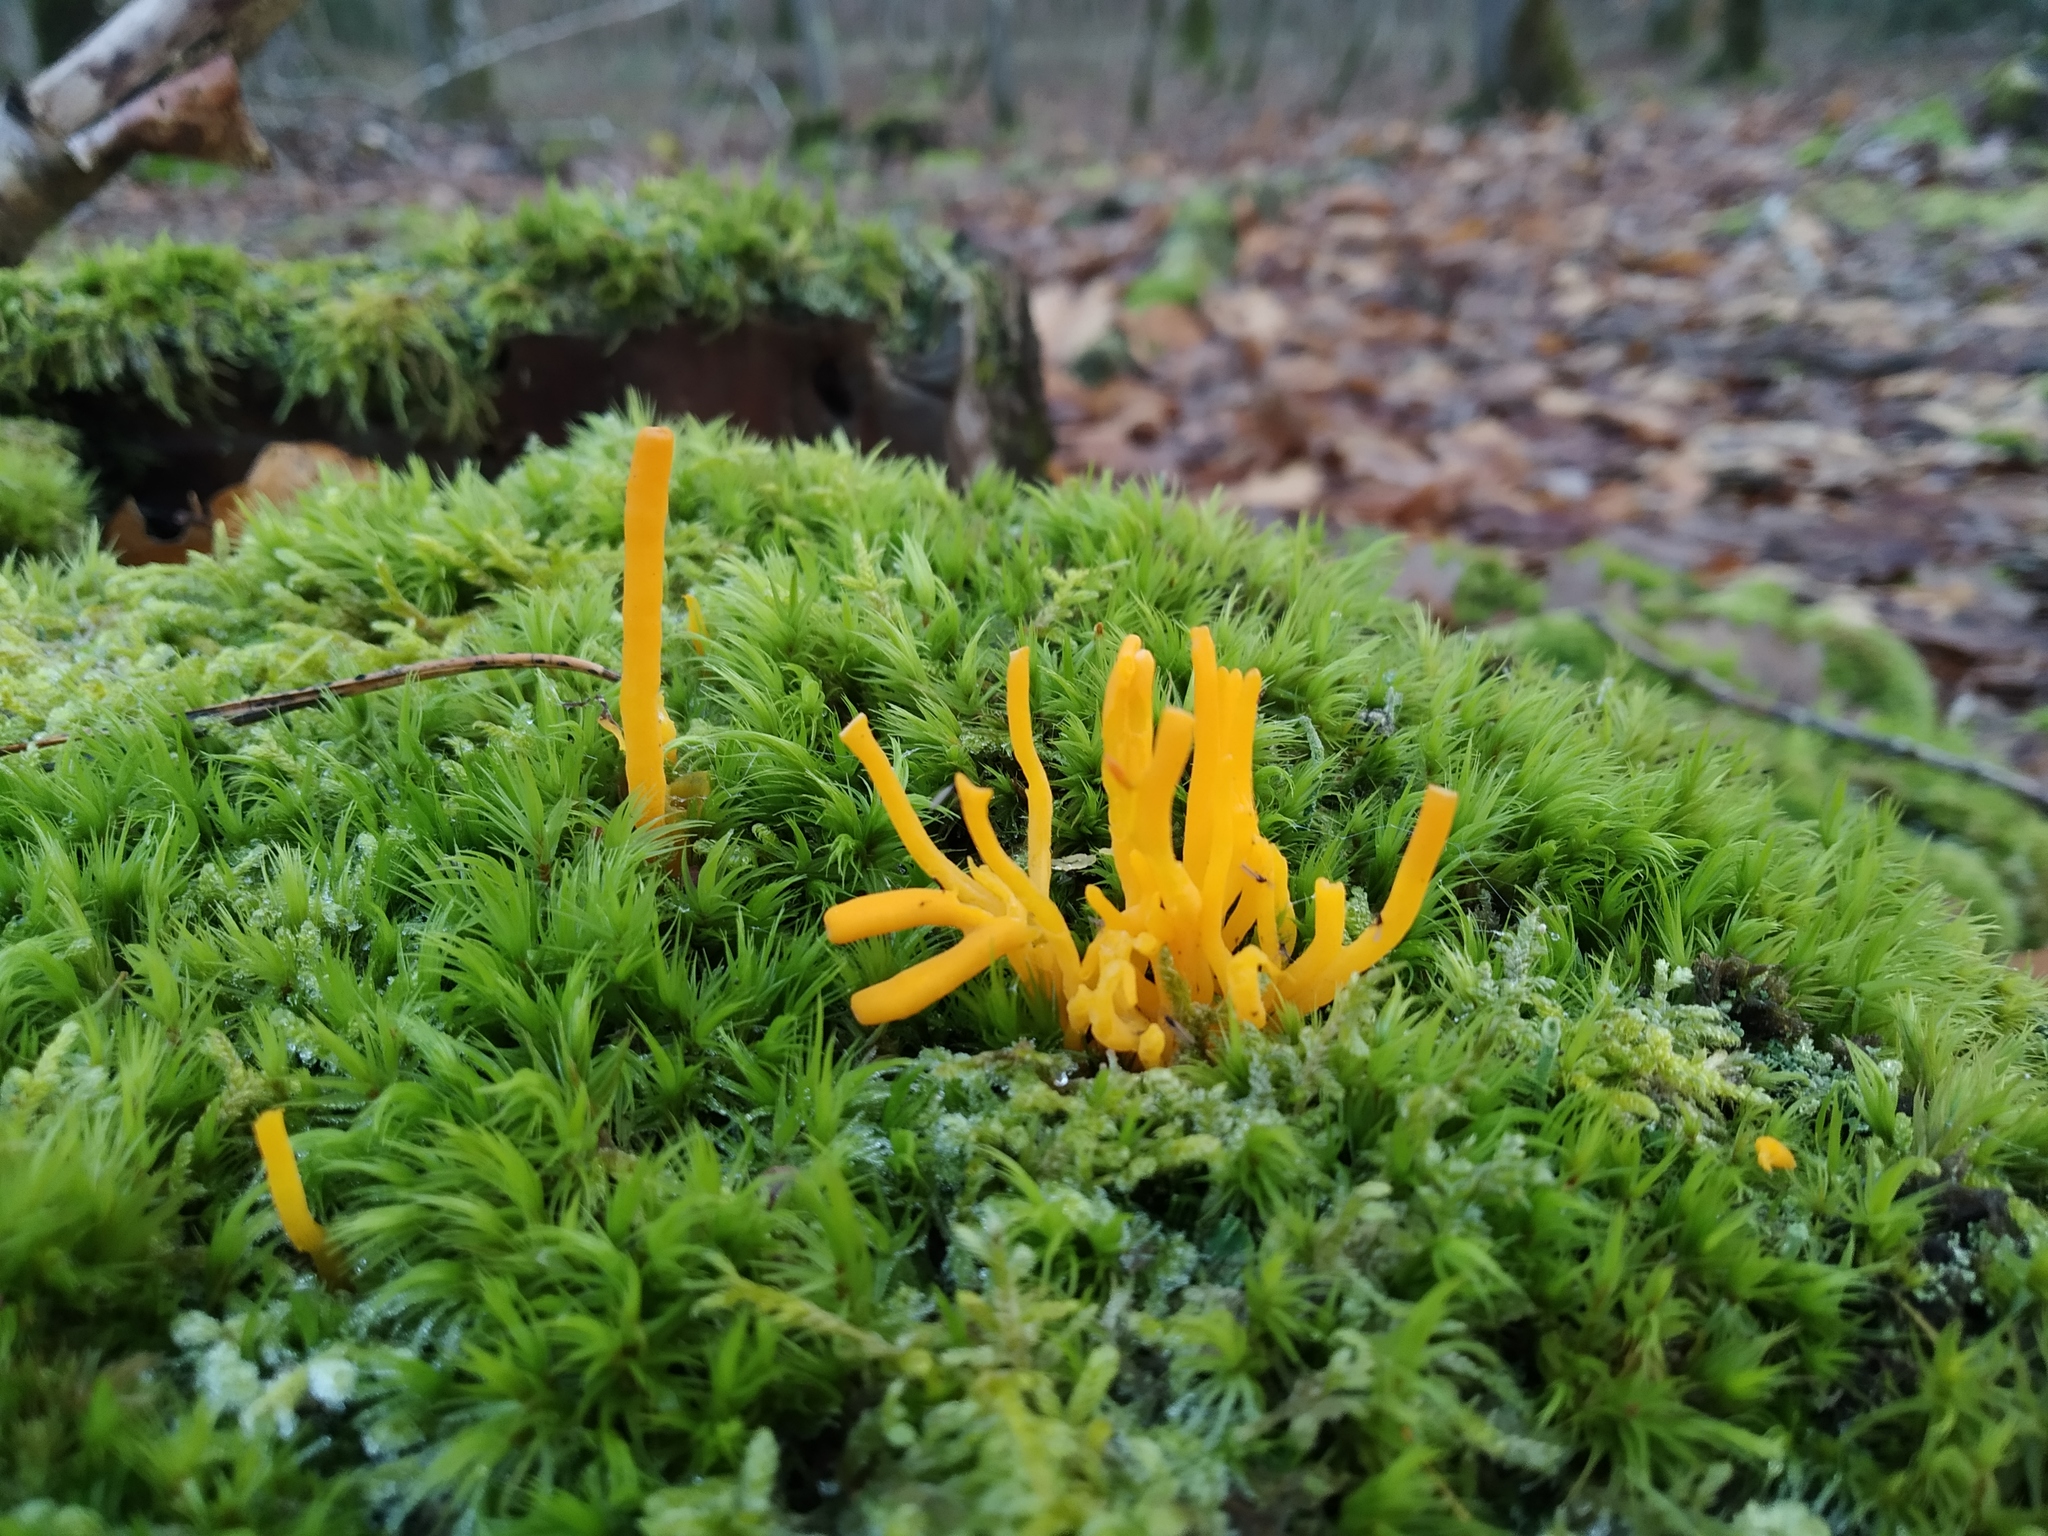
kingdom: Fungi
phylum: Basidiomycota
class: Dacrymycetes
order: Dacrymycetales
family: Dacrymycetaceae
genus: Calocera
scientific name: Calocera viscosa
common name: Yellow stagshorn
